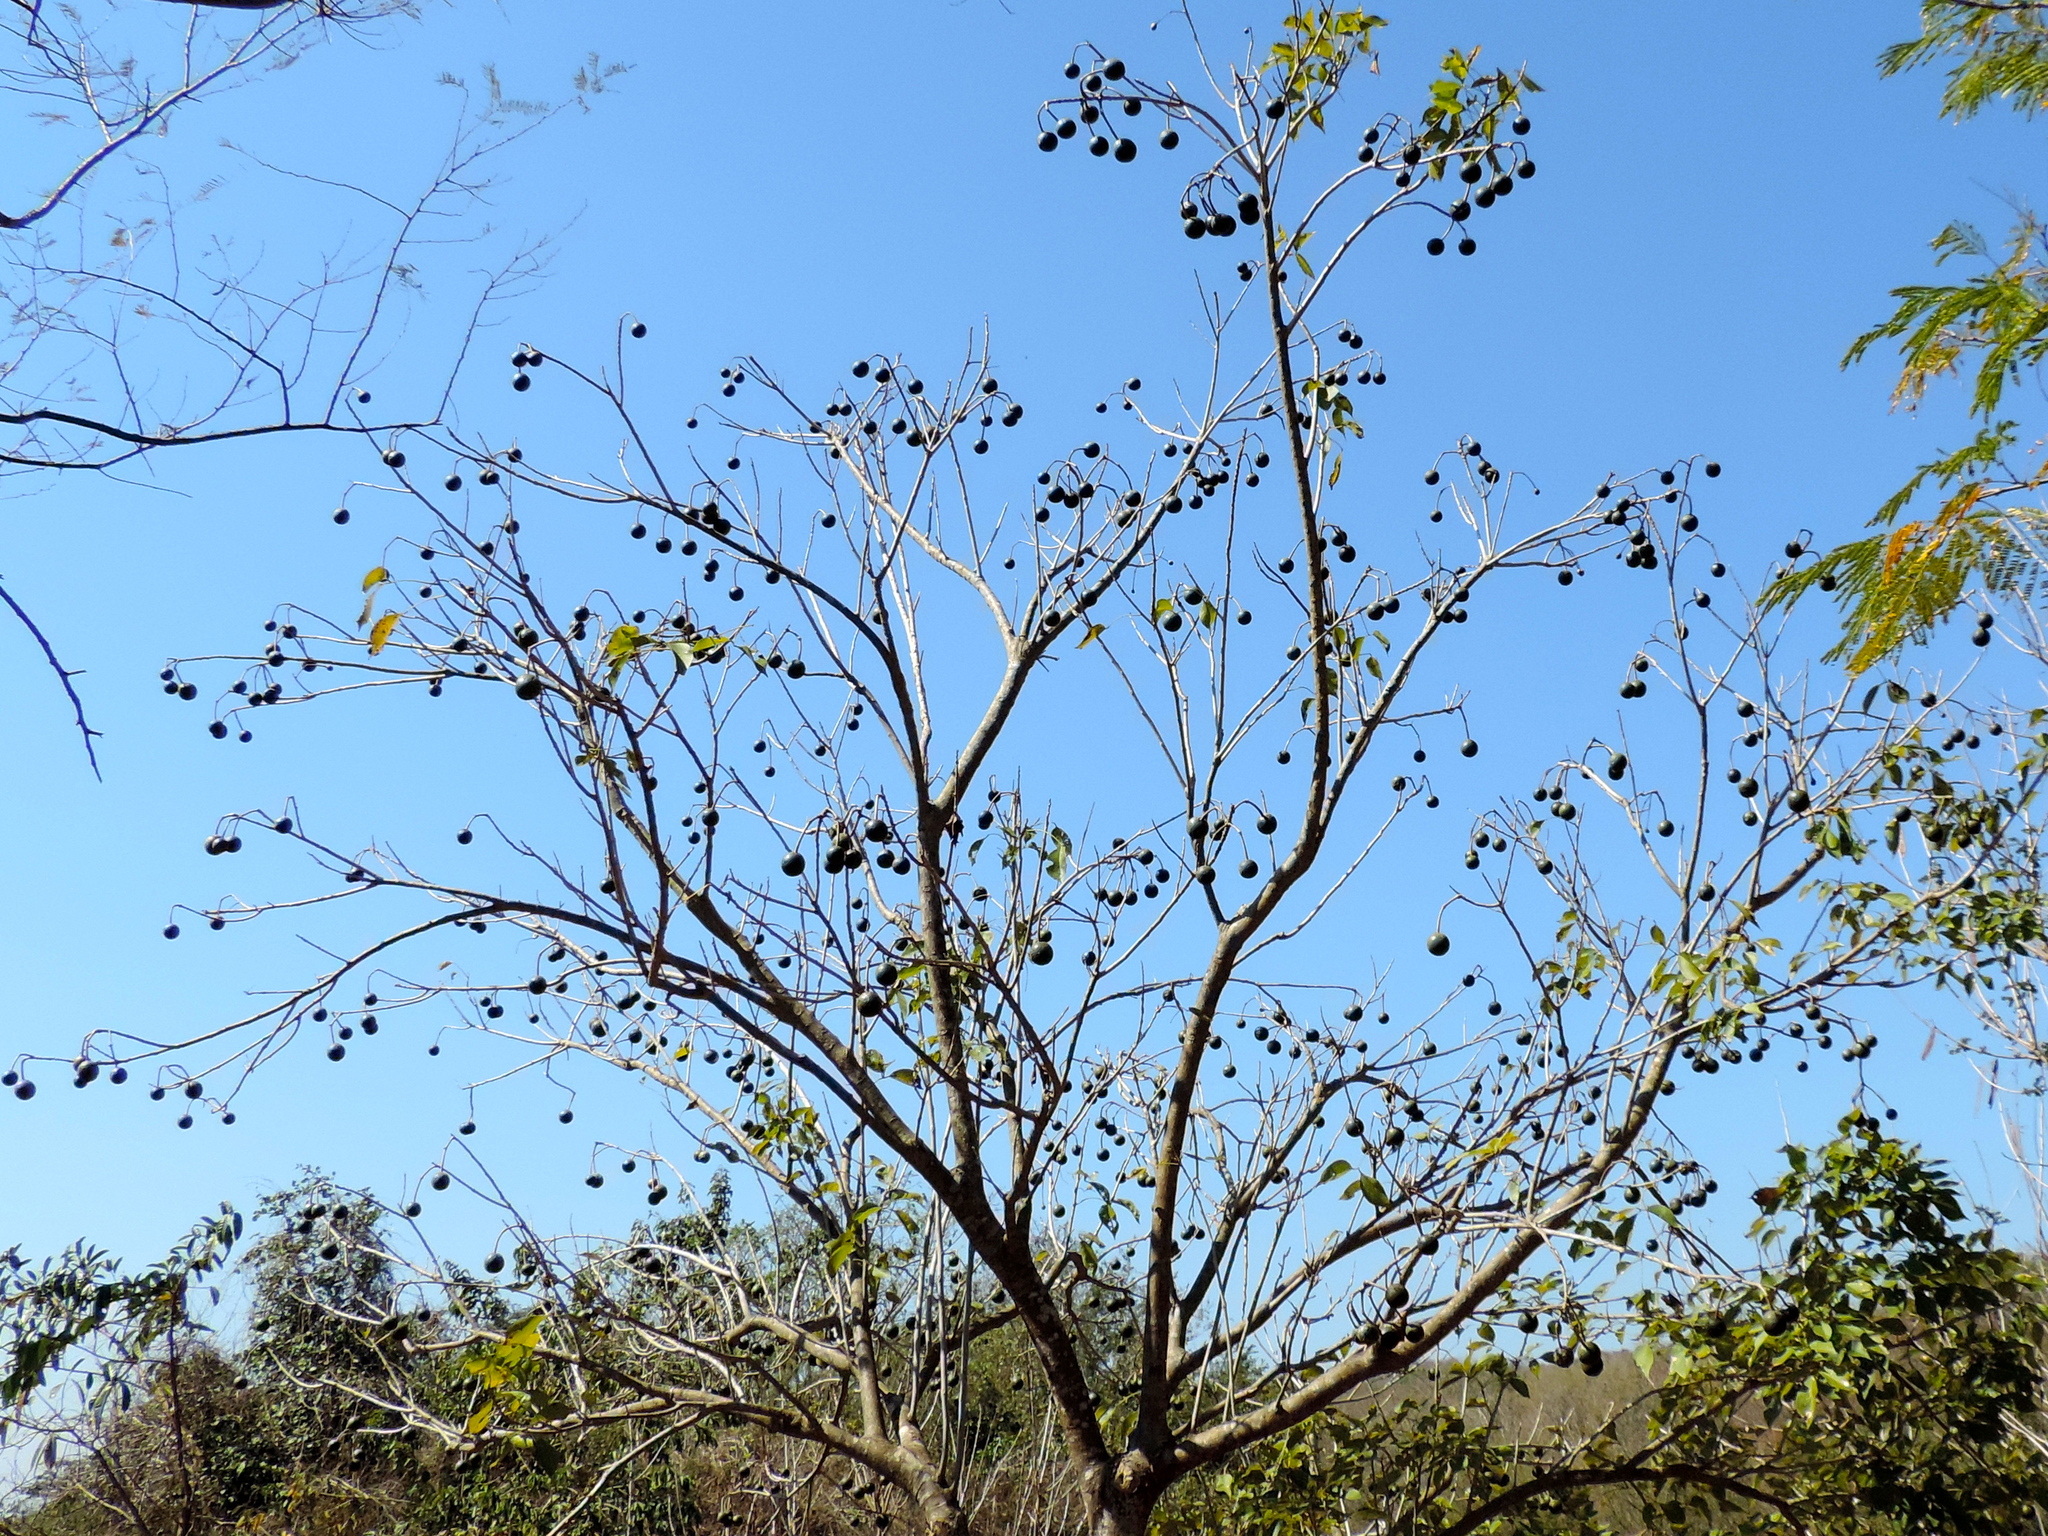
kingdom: Plantae
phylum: Tracheophyta
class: Magnoliopsida
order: Brassicales
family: Capparaceae
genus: Crateva
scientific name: Crateva tapia
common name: Garlic-pear
